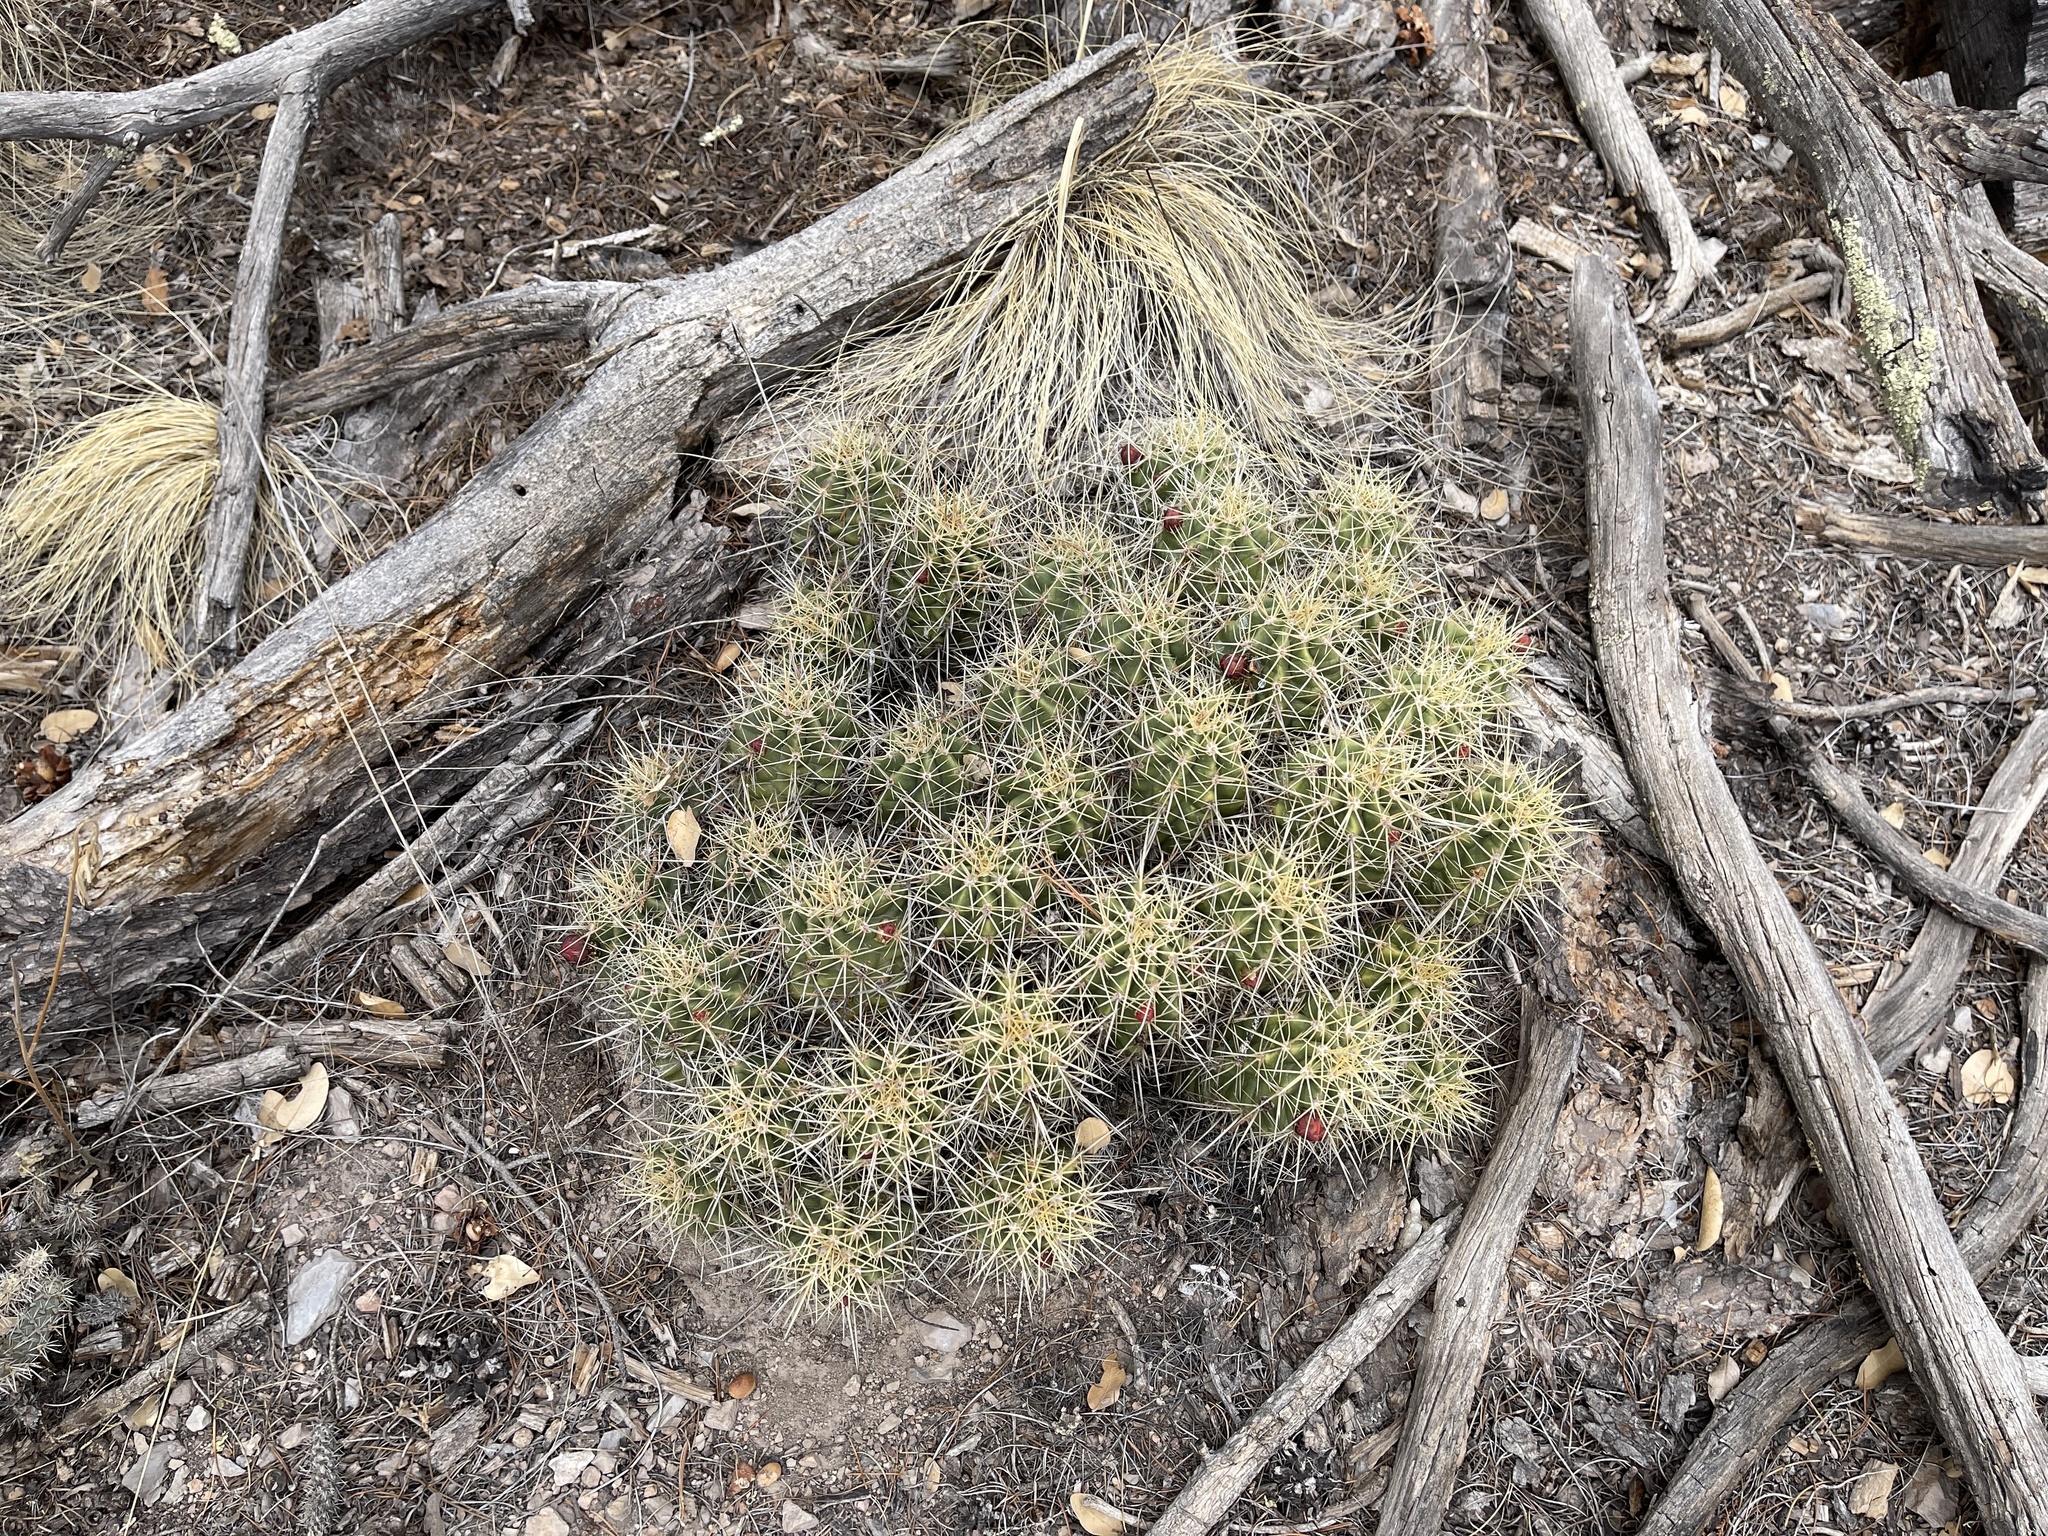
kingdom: Plantae
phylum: Tracheophyta
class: Magnoliopsida
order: Caryophyllales
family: Cactaceae
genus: Echinocereus
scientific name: Echinocereus coccineus
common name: Scarlet hedgehog cactus
